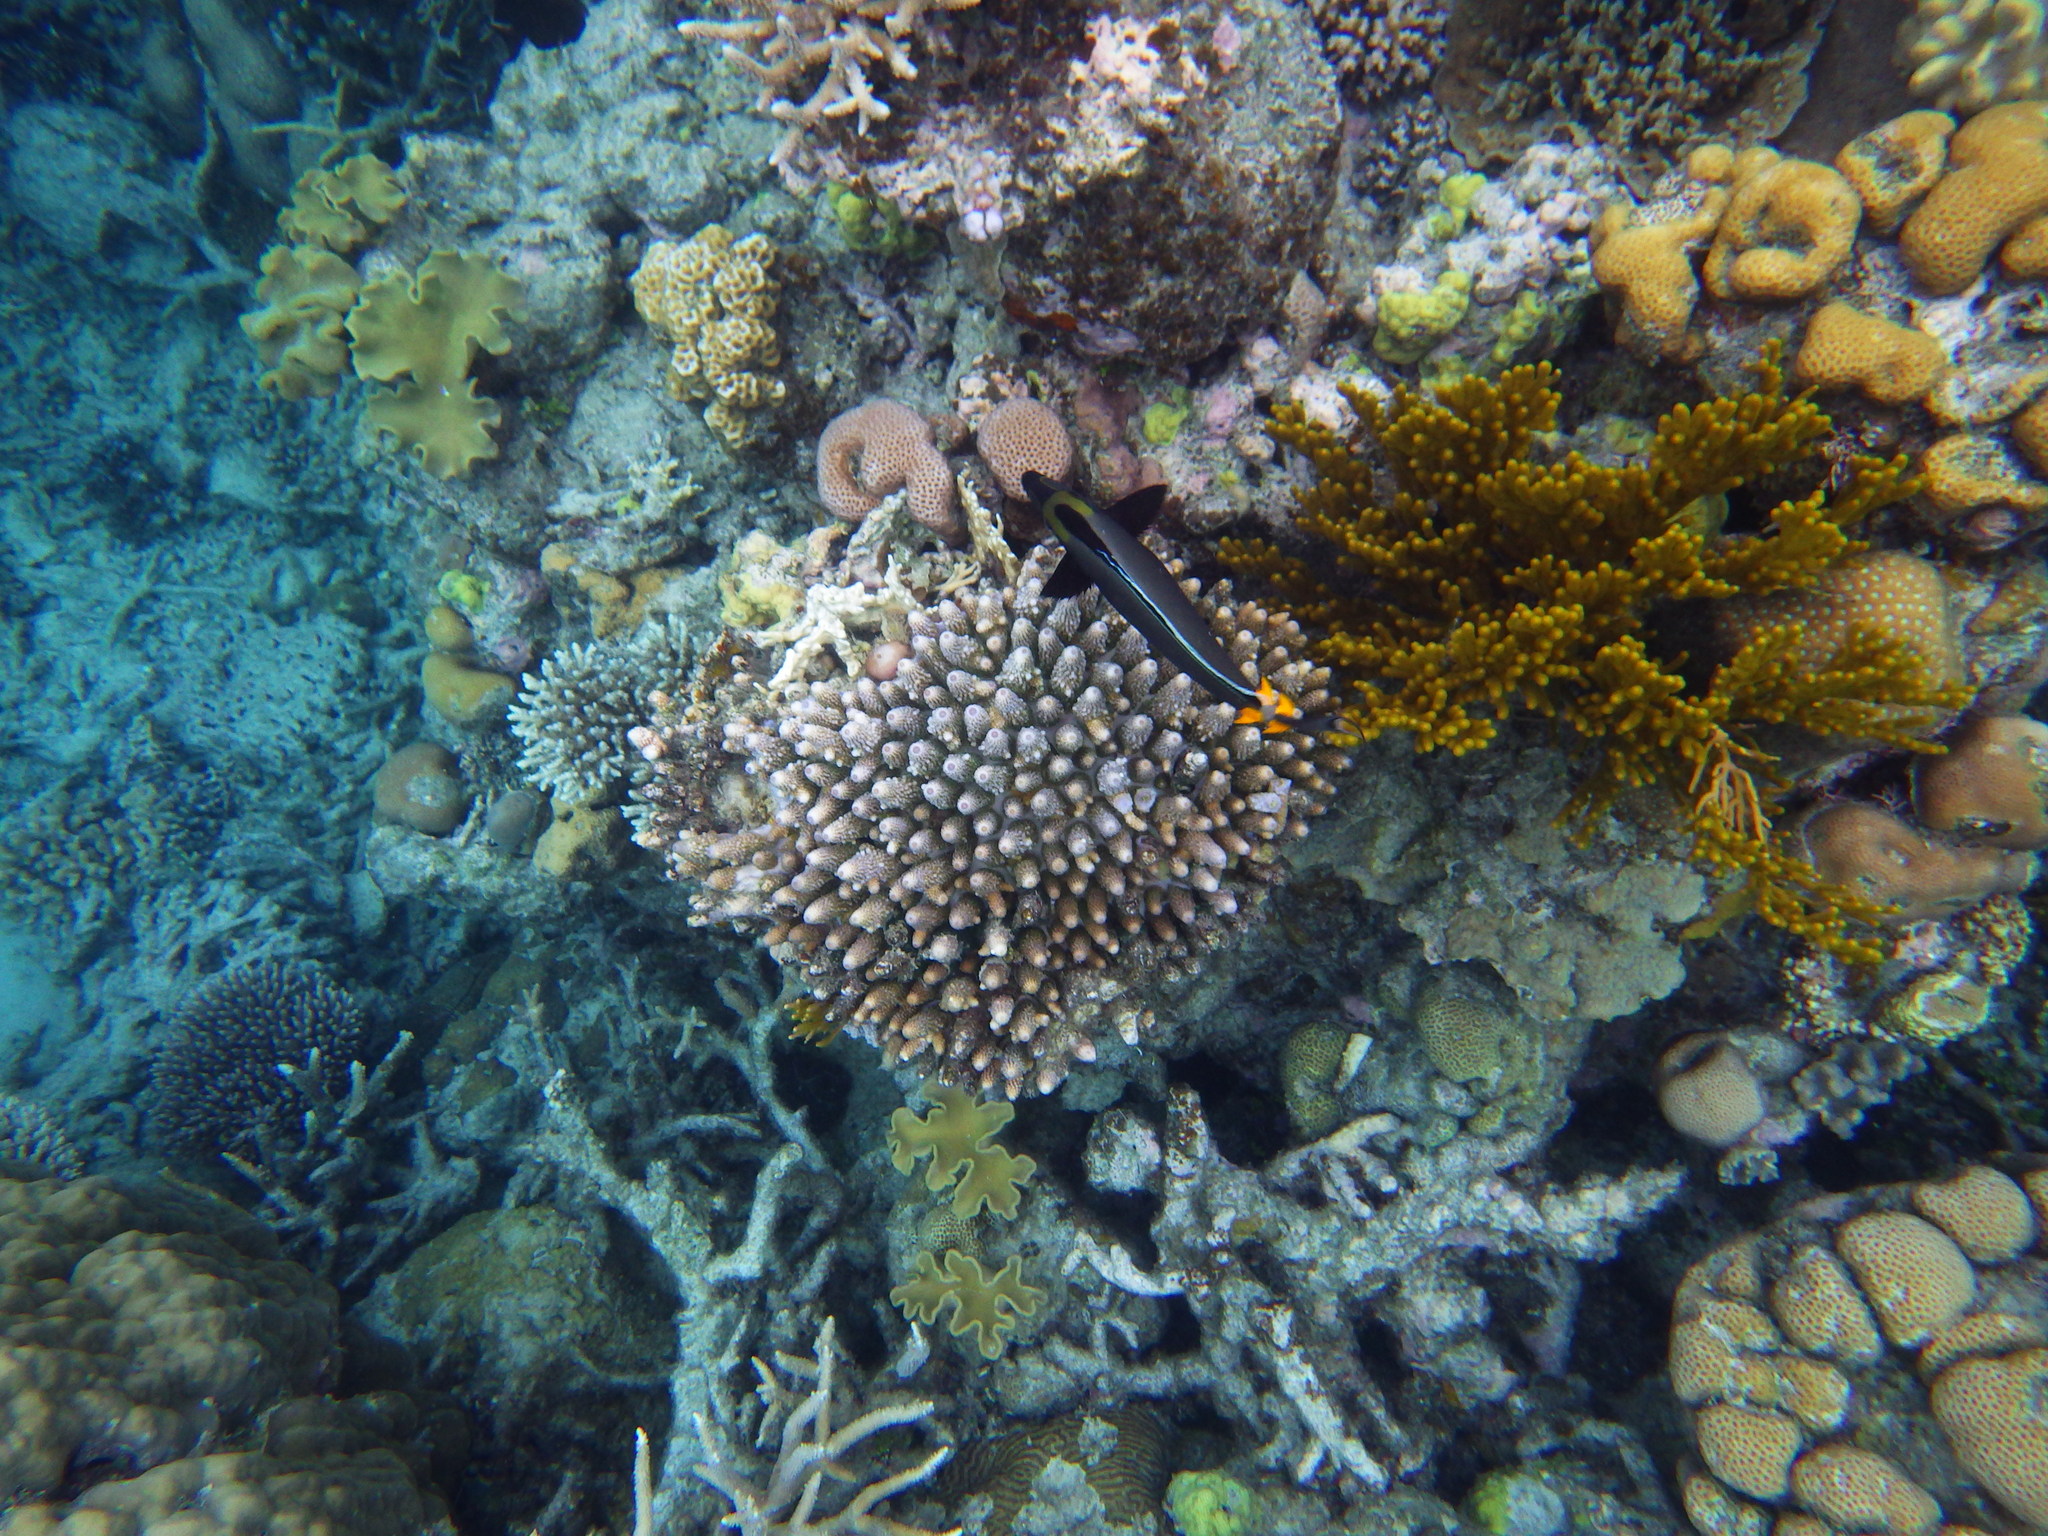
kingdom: Animalia
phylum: Chordata
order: Perciformes
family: Acanthuridae
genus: Naso
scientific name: Naso lituratus
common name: Orangespine unicornfish
